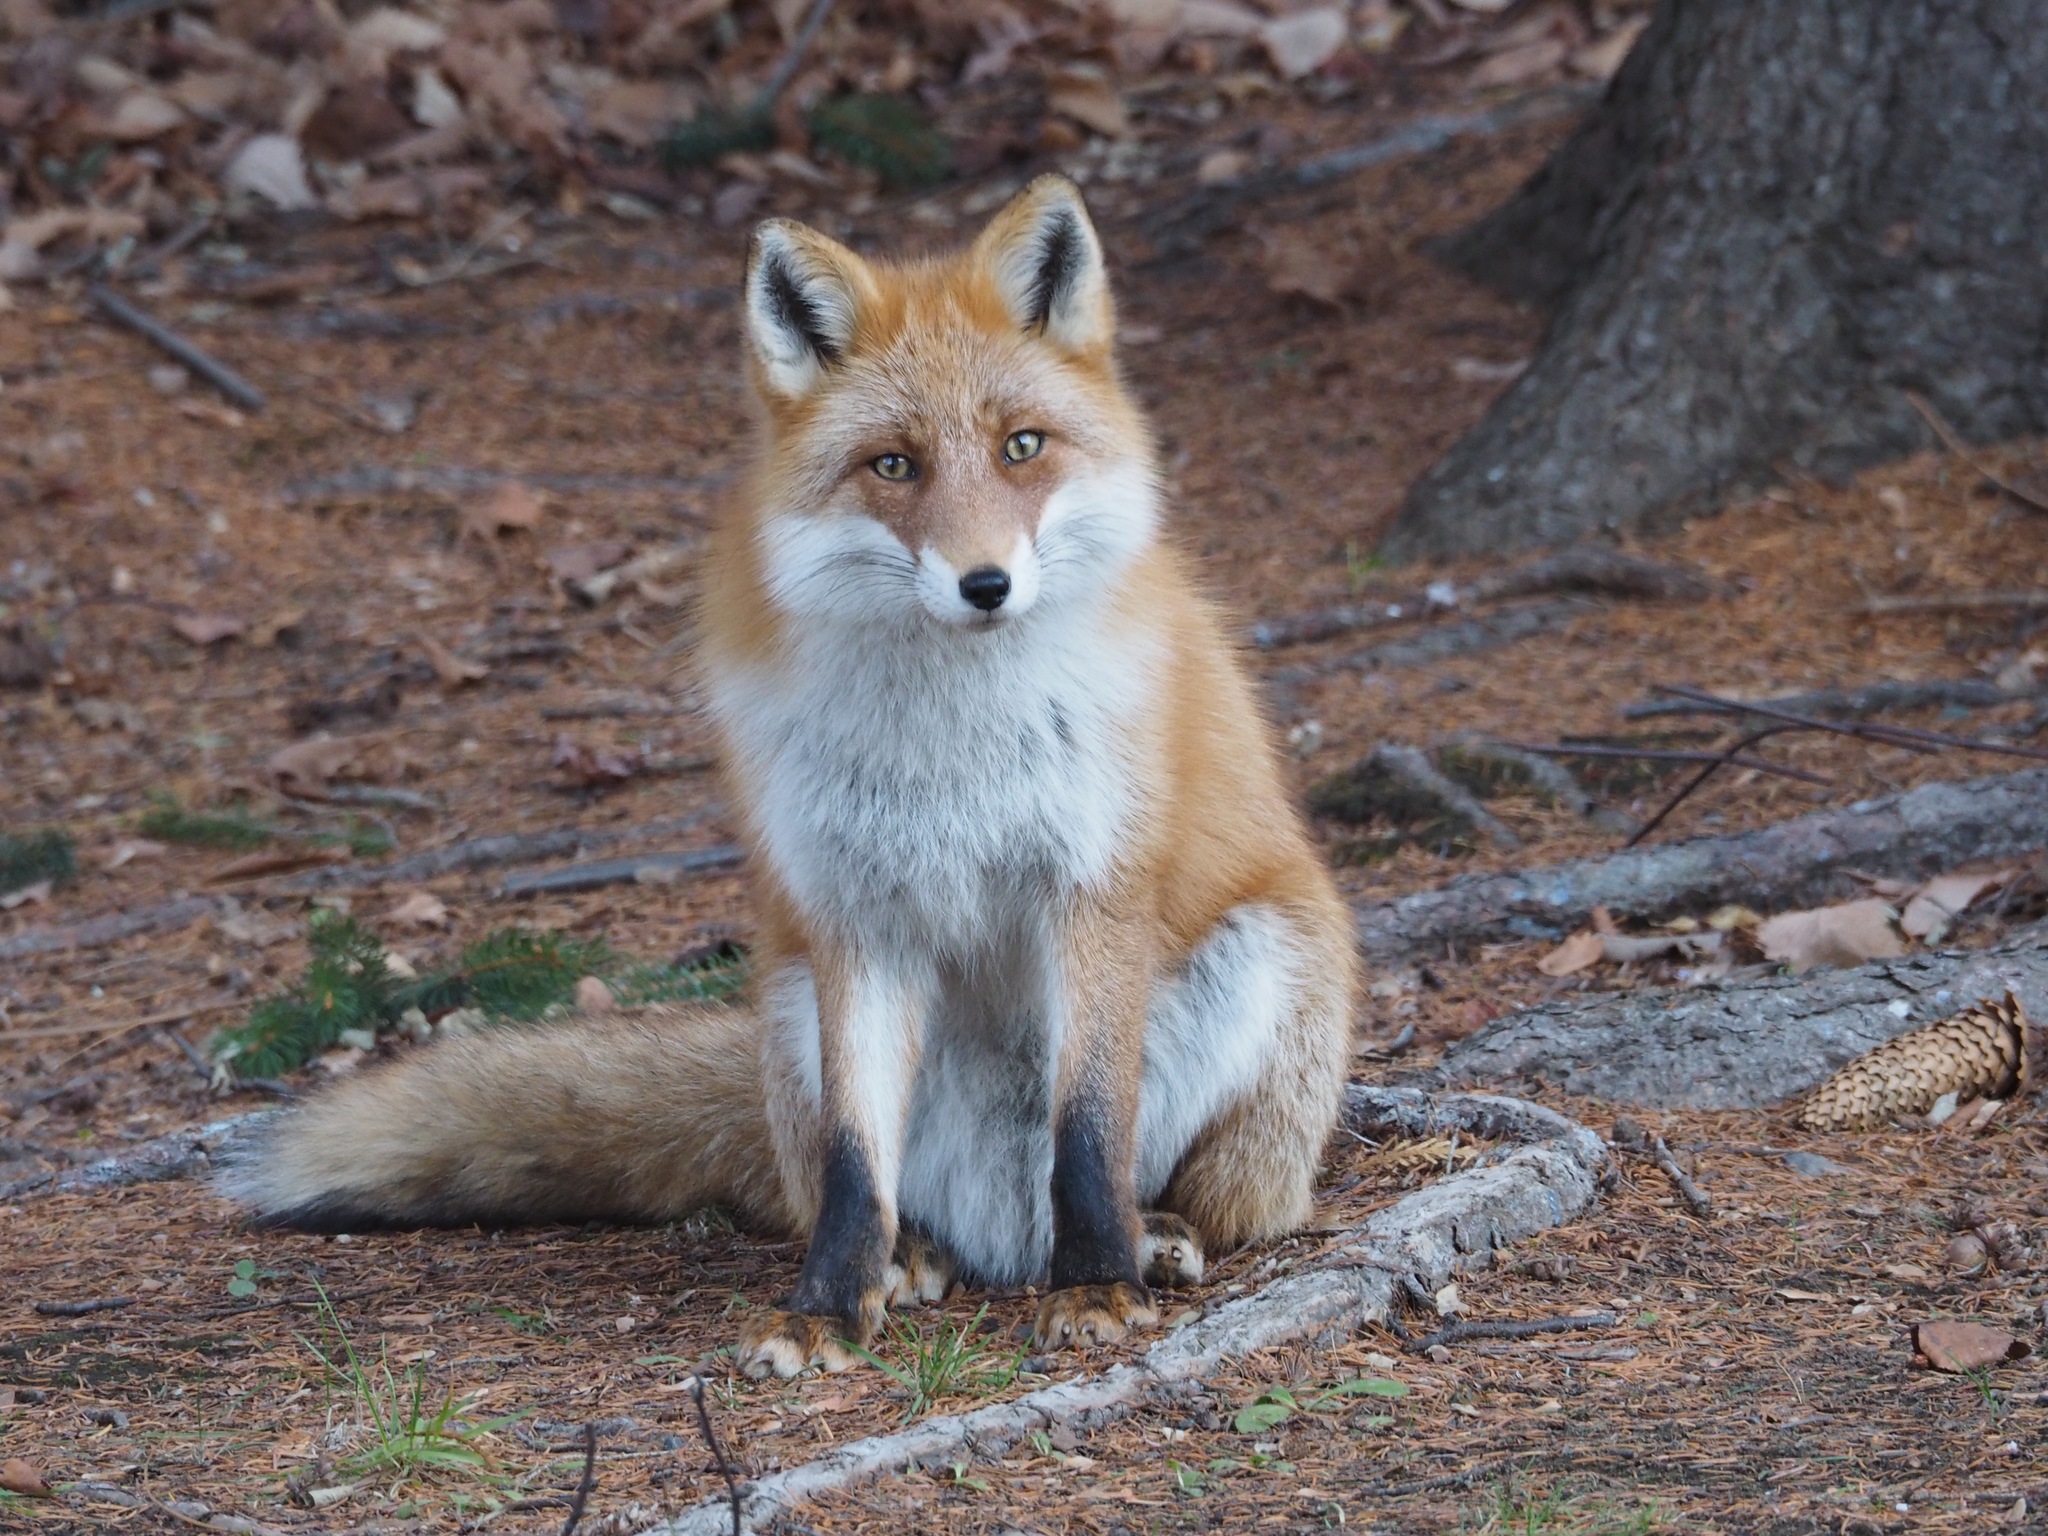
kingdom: Animalia
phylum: Chordata
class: Mammalia
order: Carnivora
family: Canidae
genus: Vulpes
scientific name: Vulpes vulpes
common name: Red fox
